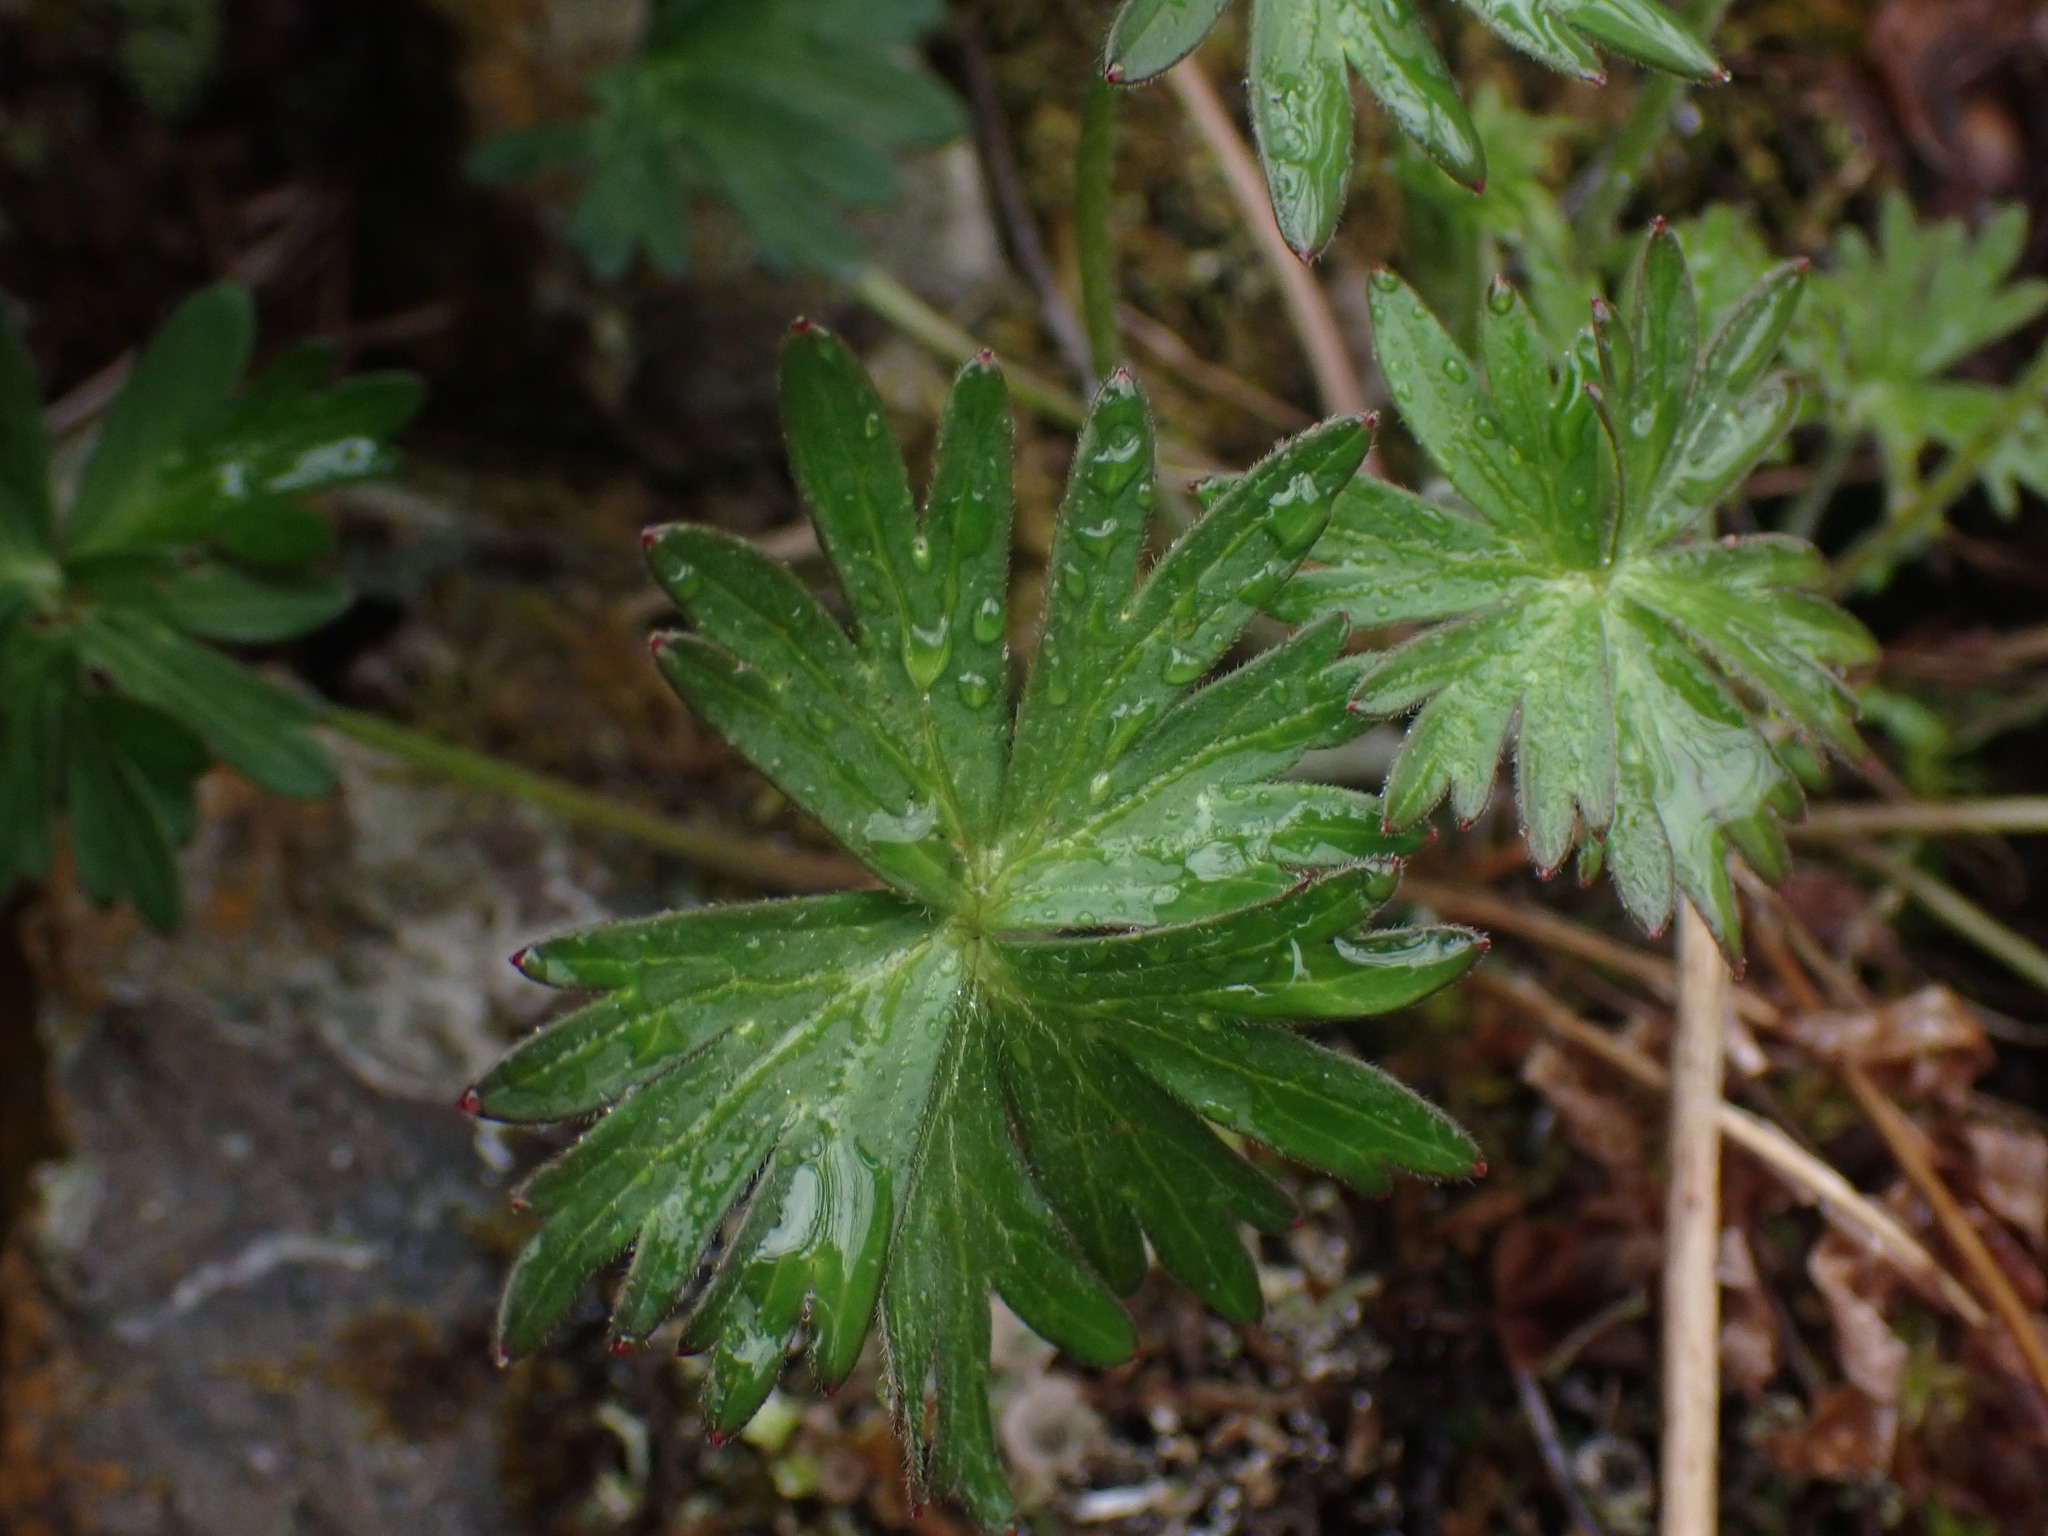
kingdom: Plantae
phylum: Tracheophyta
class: Magnoliopsida
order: Ranunculales
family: Ranunculaceae
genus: Delphinium
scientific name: Delphinium menziesii
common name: Menzies's larkspur
